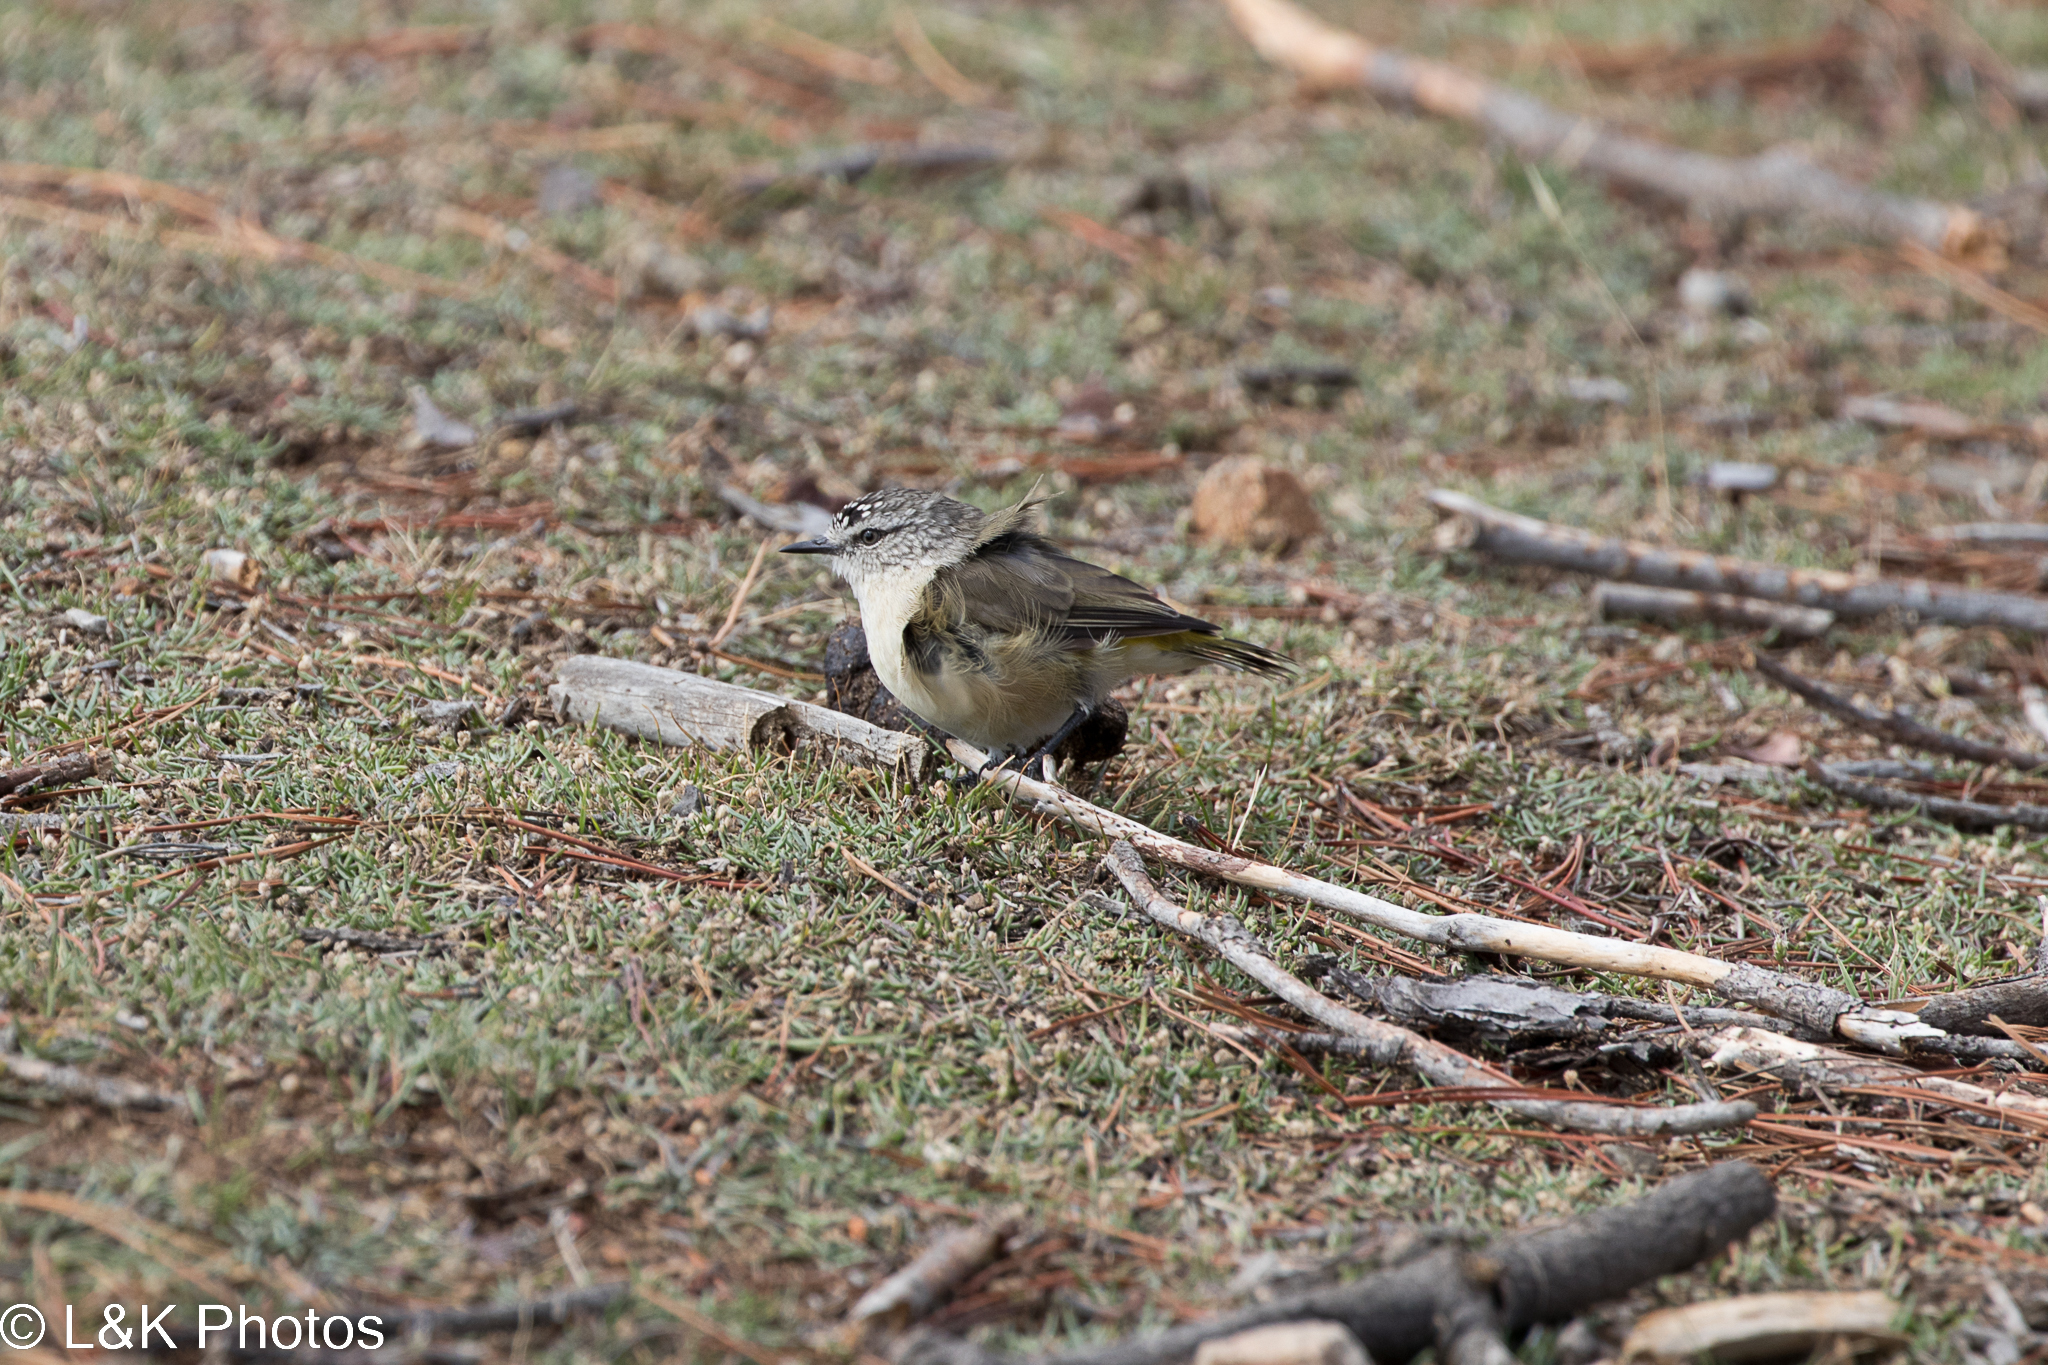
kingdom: Animalia
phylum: Chordata
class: Aves
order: Passeriformes
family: Acanthizidae
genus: Acanthiza
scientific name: Acanthiza chrysorrhoa
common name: Yellow-rumped thornbill
